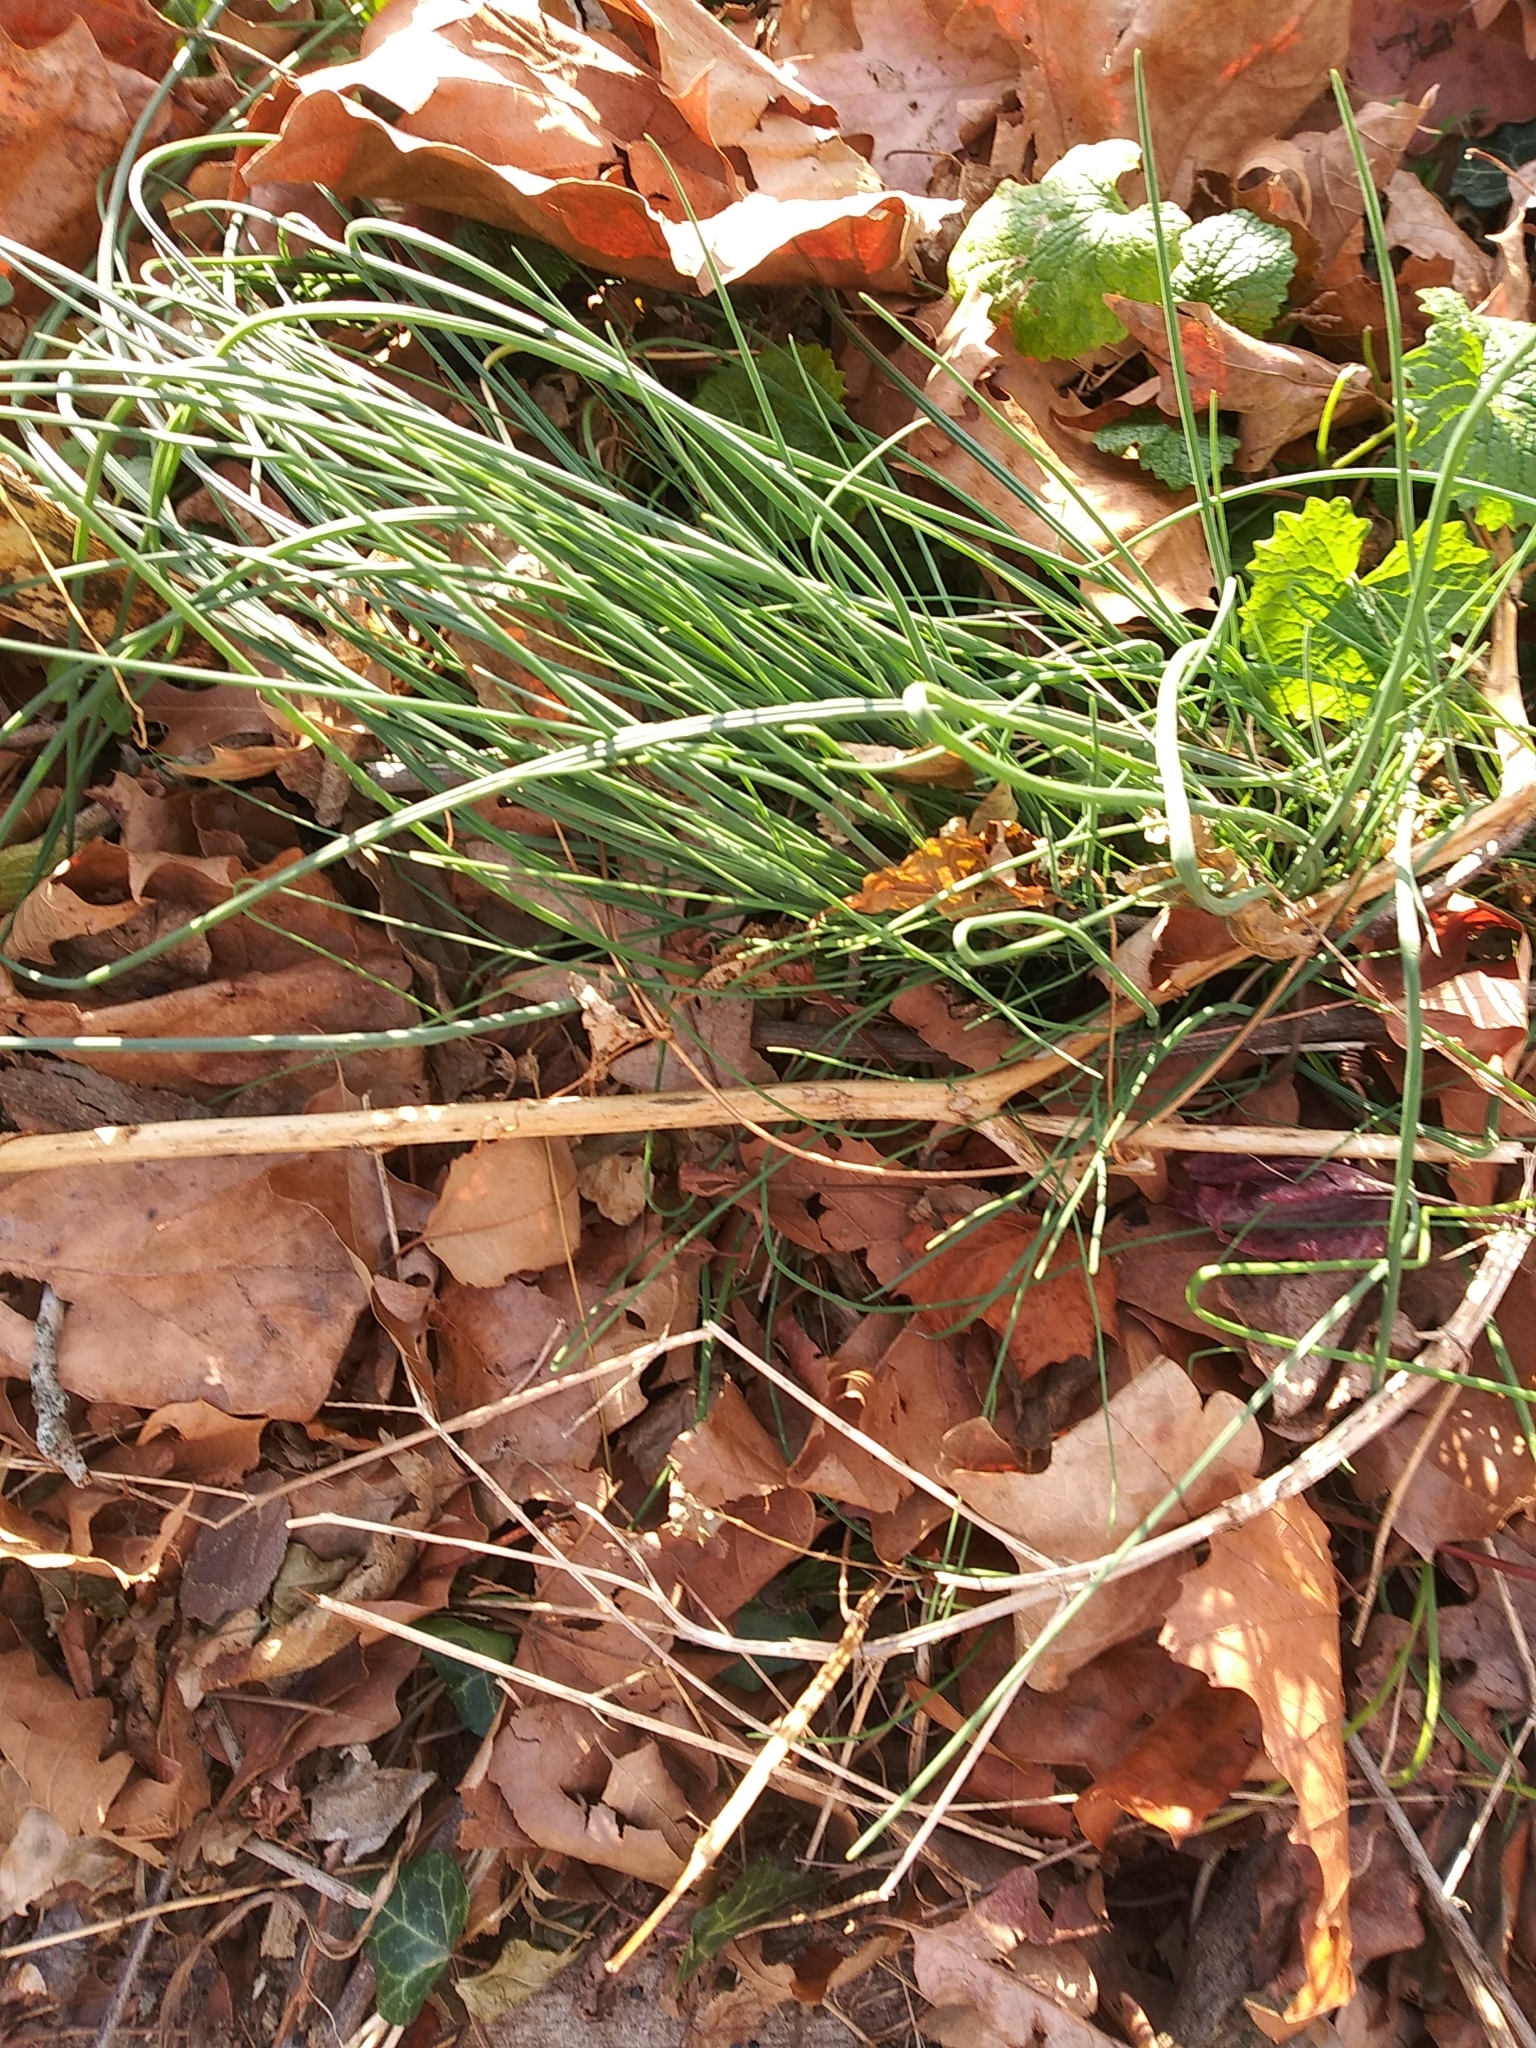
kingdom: Plantae
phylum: Tracheophyta
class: Liliopsida
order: Asparagales
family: Amaryllidaceae
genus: Allium
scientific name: Allium vineale
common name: Crow garlic
